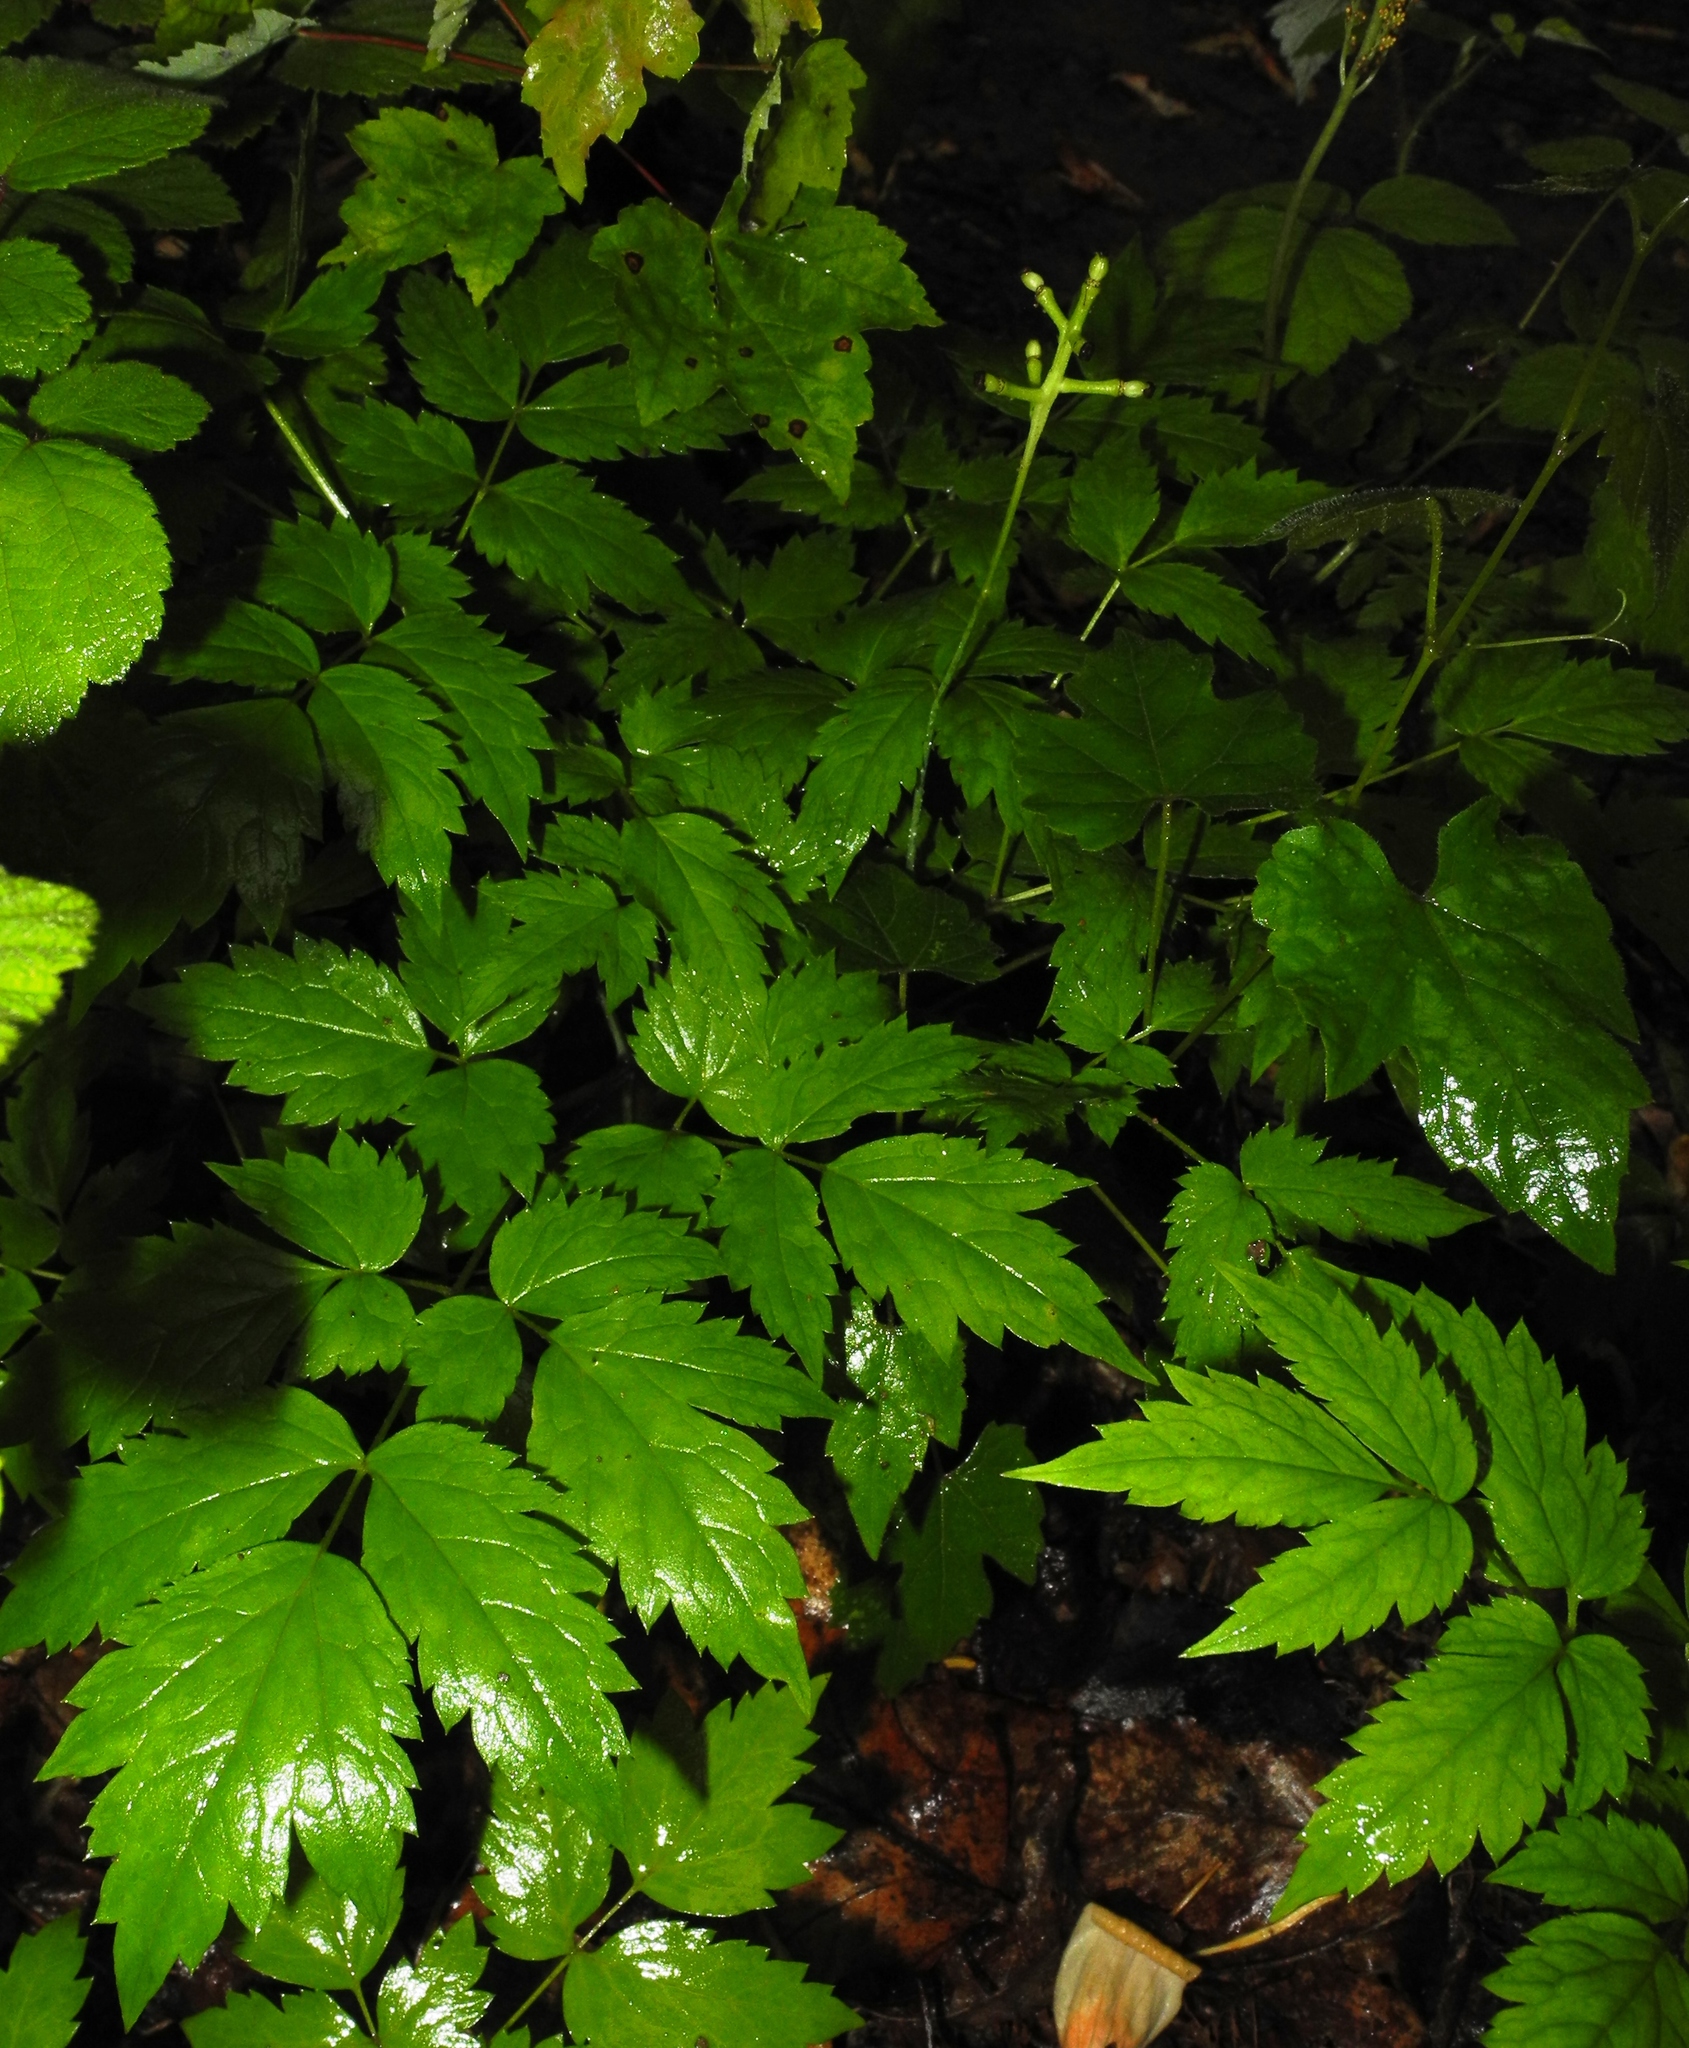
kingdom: Plantae
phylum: Tracheophyta
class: Magnoliopsida
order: Ranunculales
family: Ranunculaceae
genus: Actaea
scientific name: Actaea pachypoda
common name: Doll's-eyes
